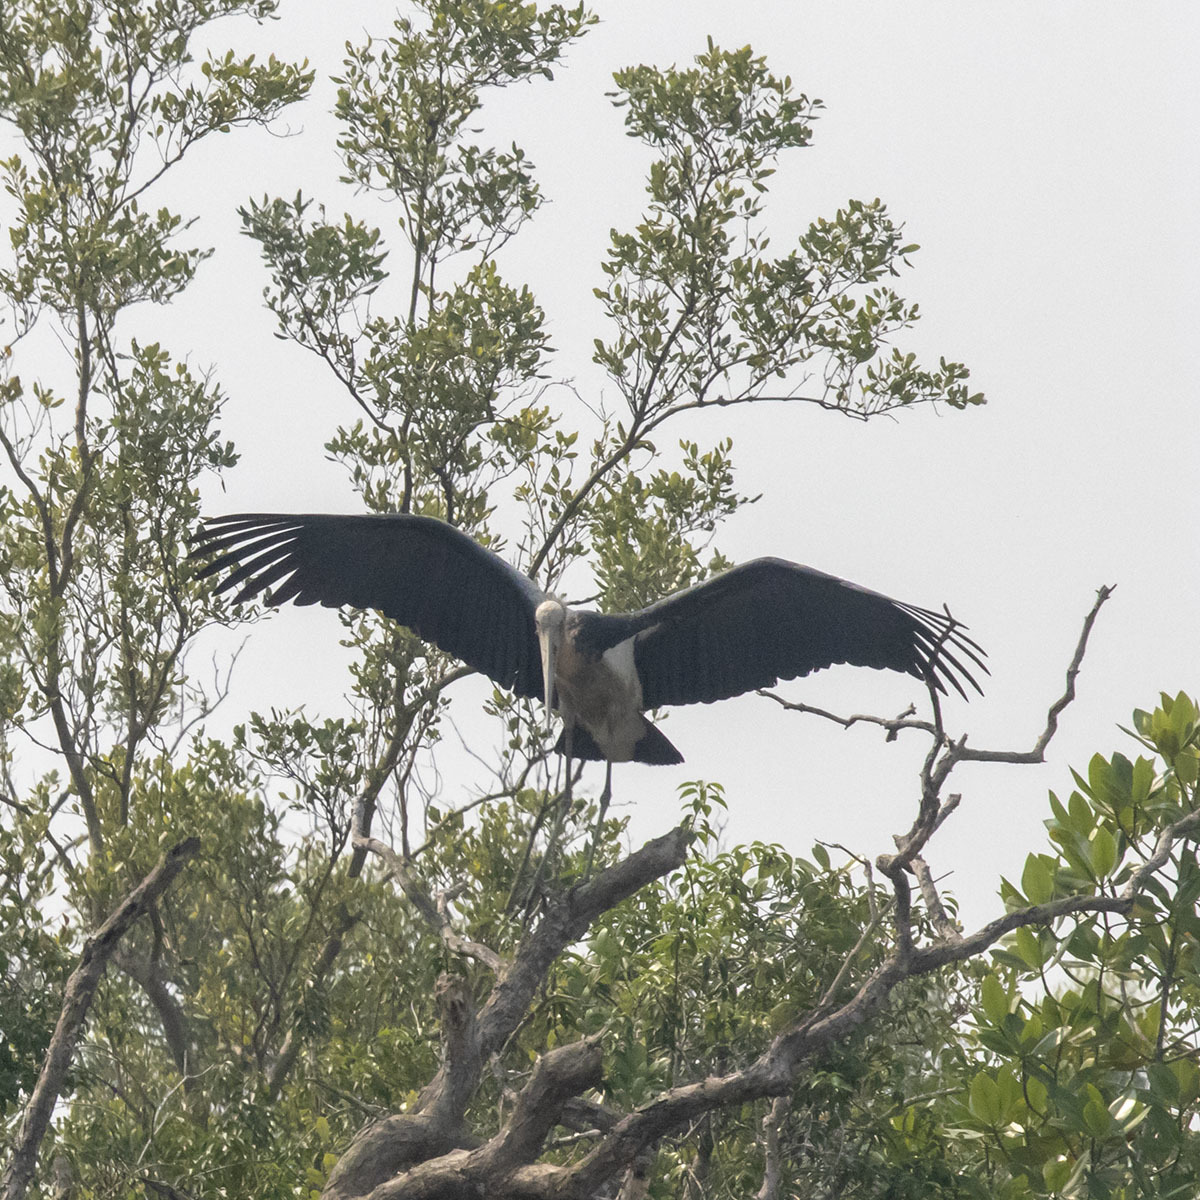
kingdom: Animalia
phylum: Chordata
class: Aves
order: Ciconiiformes
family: Ciconiidae
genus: Leptoptilos
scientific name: Leptoptilos javanicus
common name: Lesser adjutant
